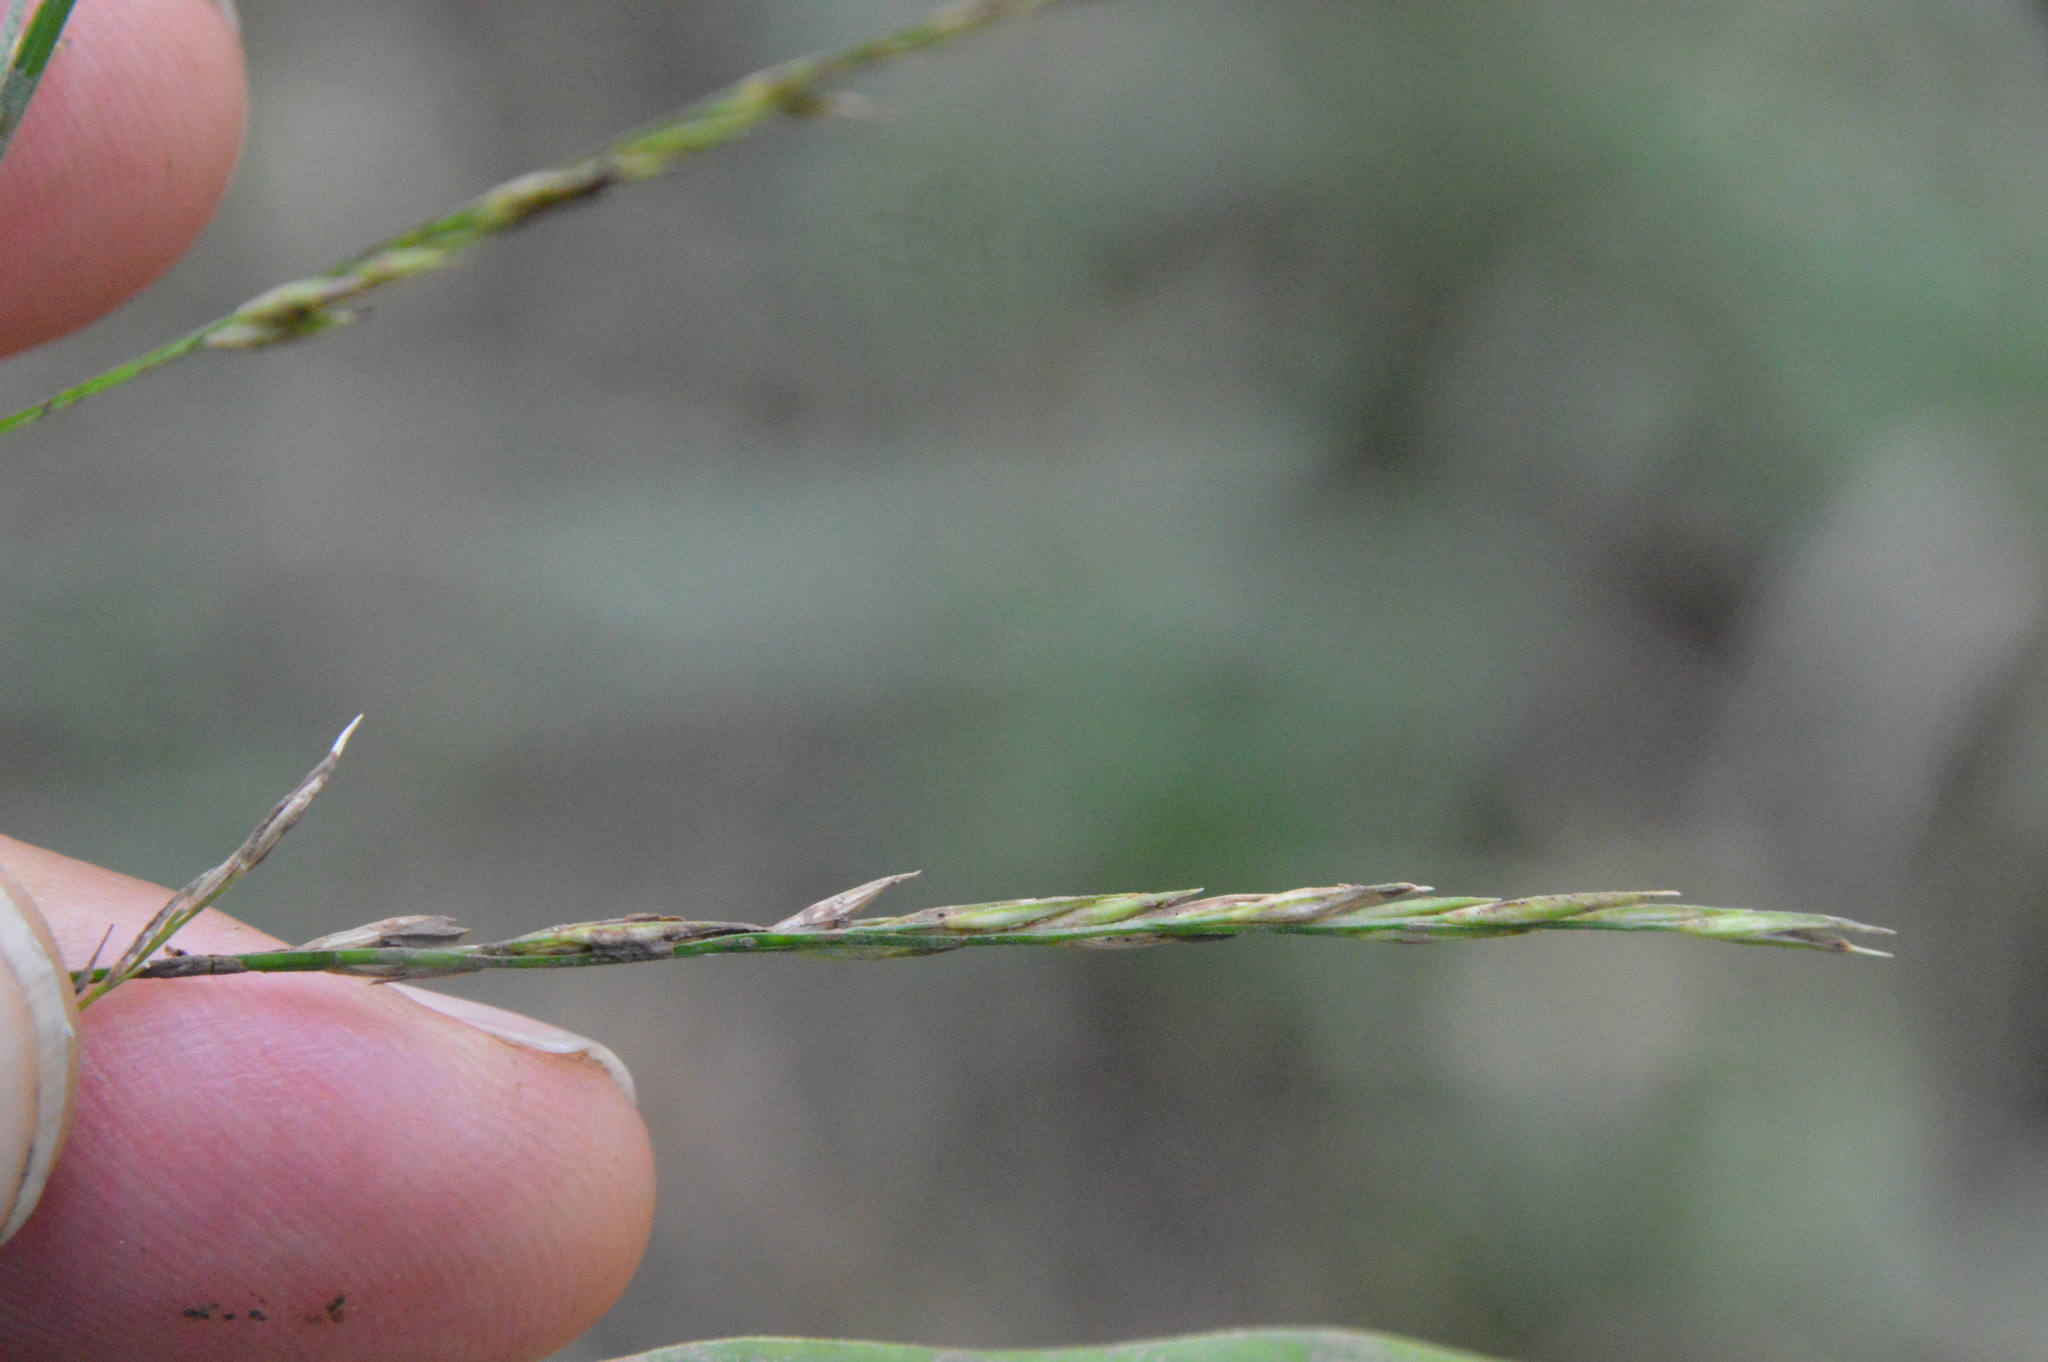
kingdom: Plantae
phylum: Tracheophyta
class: Liliopsida
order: Poales
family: Poaceae
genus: Panicum
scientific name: Panicum gymnocarpon
